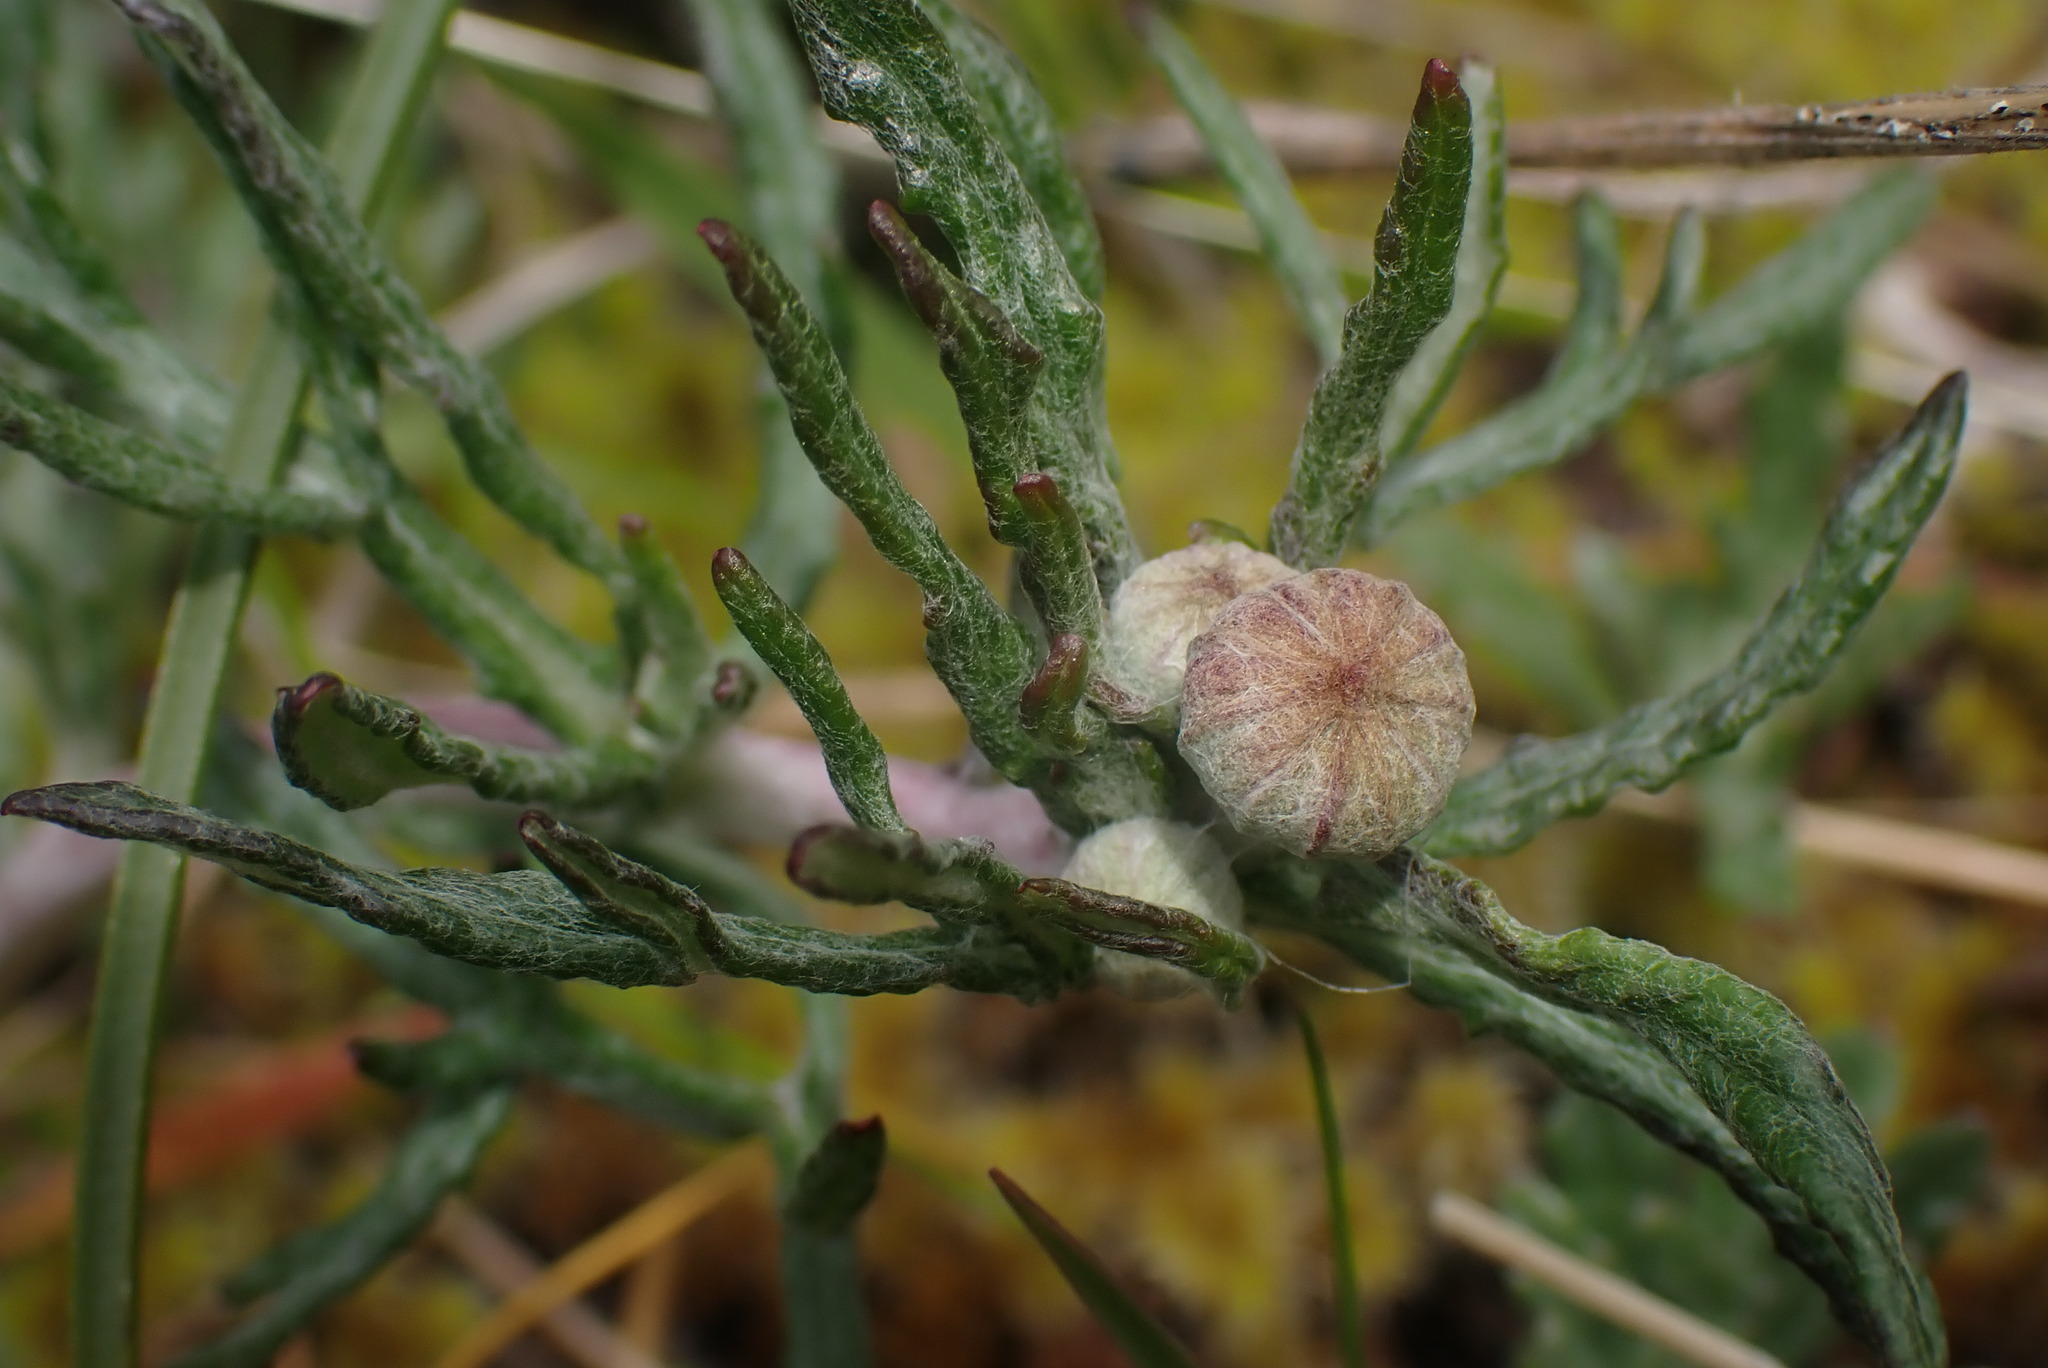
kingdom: Plantae
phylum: Tracheophyta
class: Magnoliopsida
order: Asterales
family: Asteraceae
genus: Eriophyllum
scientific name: Eriophyllum lanatum
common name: Common woolly-sunflower
